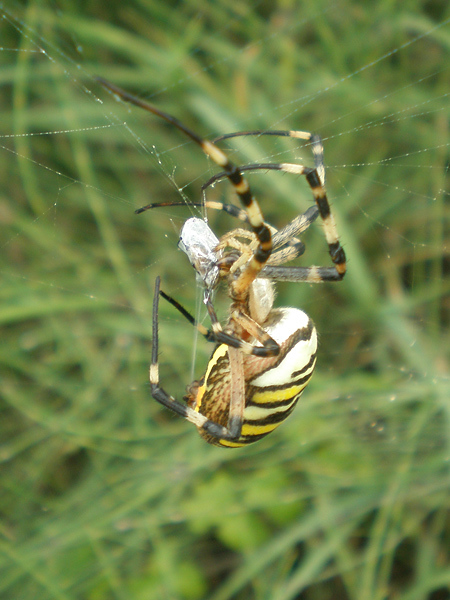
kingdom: Animalia
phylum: Arthropoda
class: Arachnida
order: Araneae
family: Araneidae
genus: Argiope
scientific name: Argiope bruennichi
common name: Wasp spider
